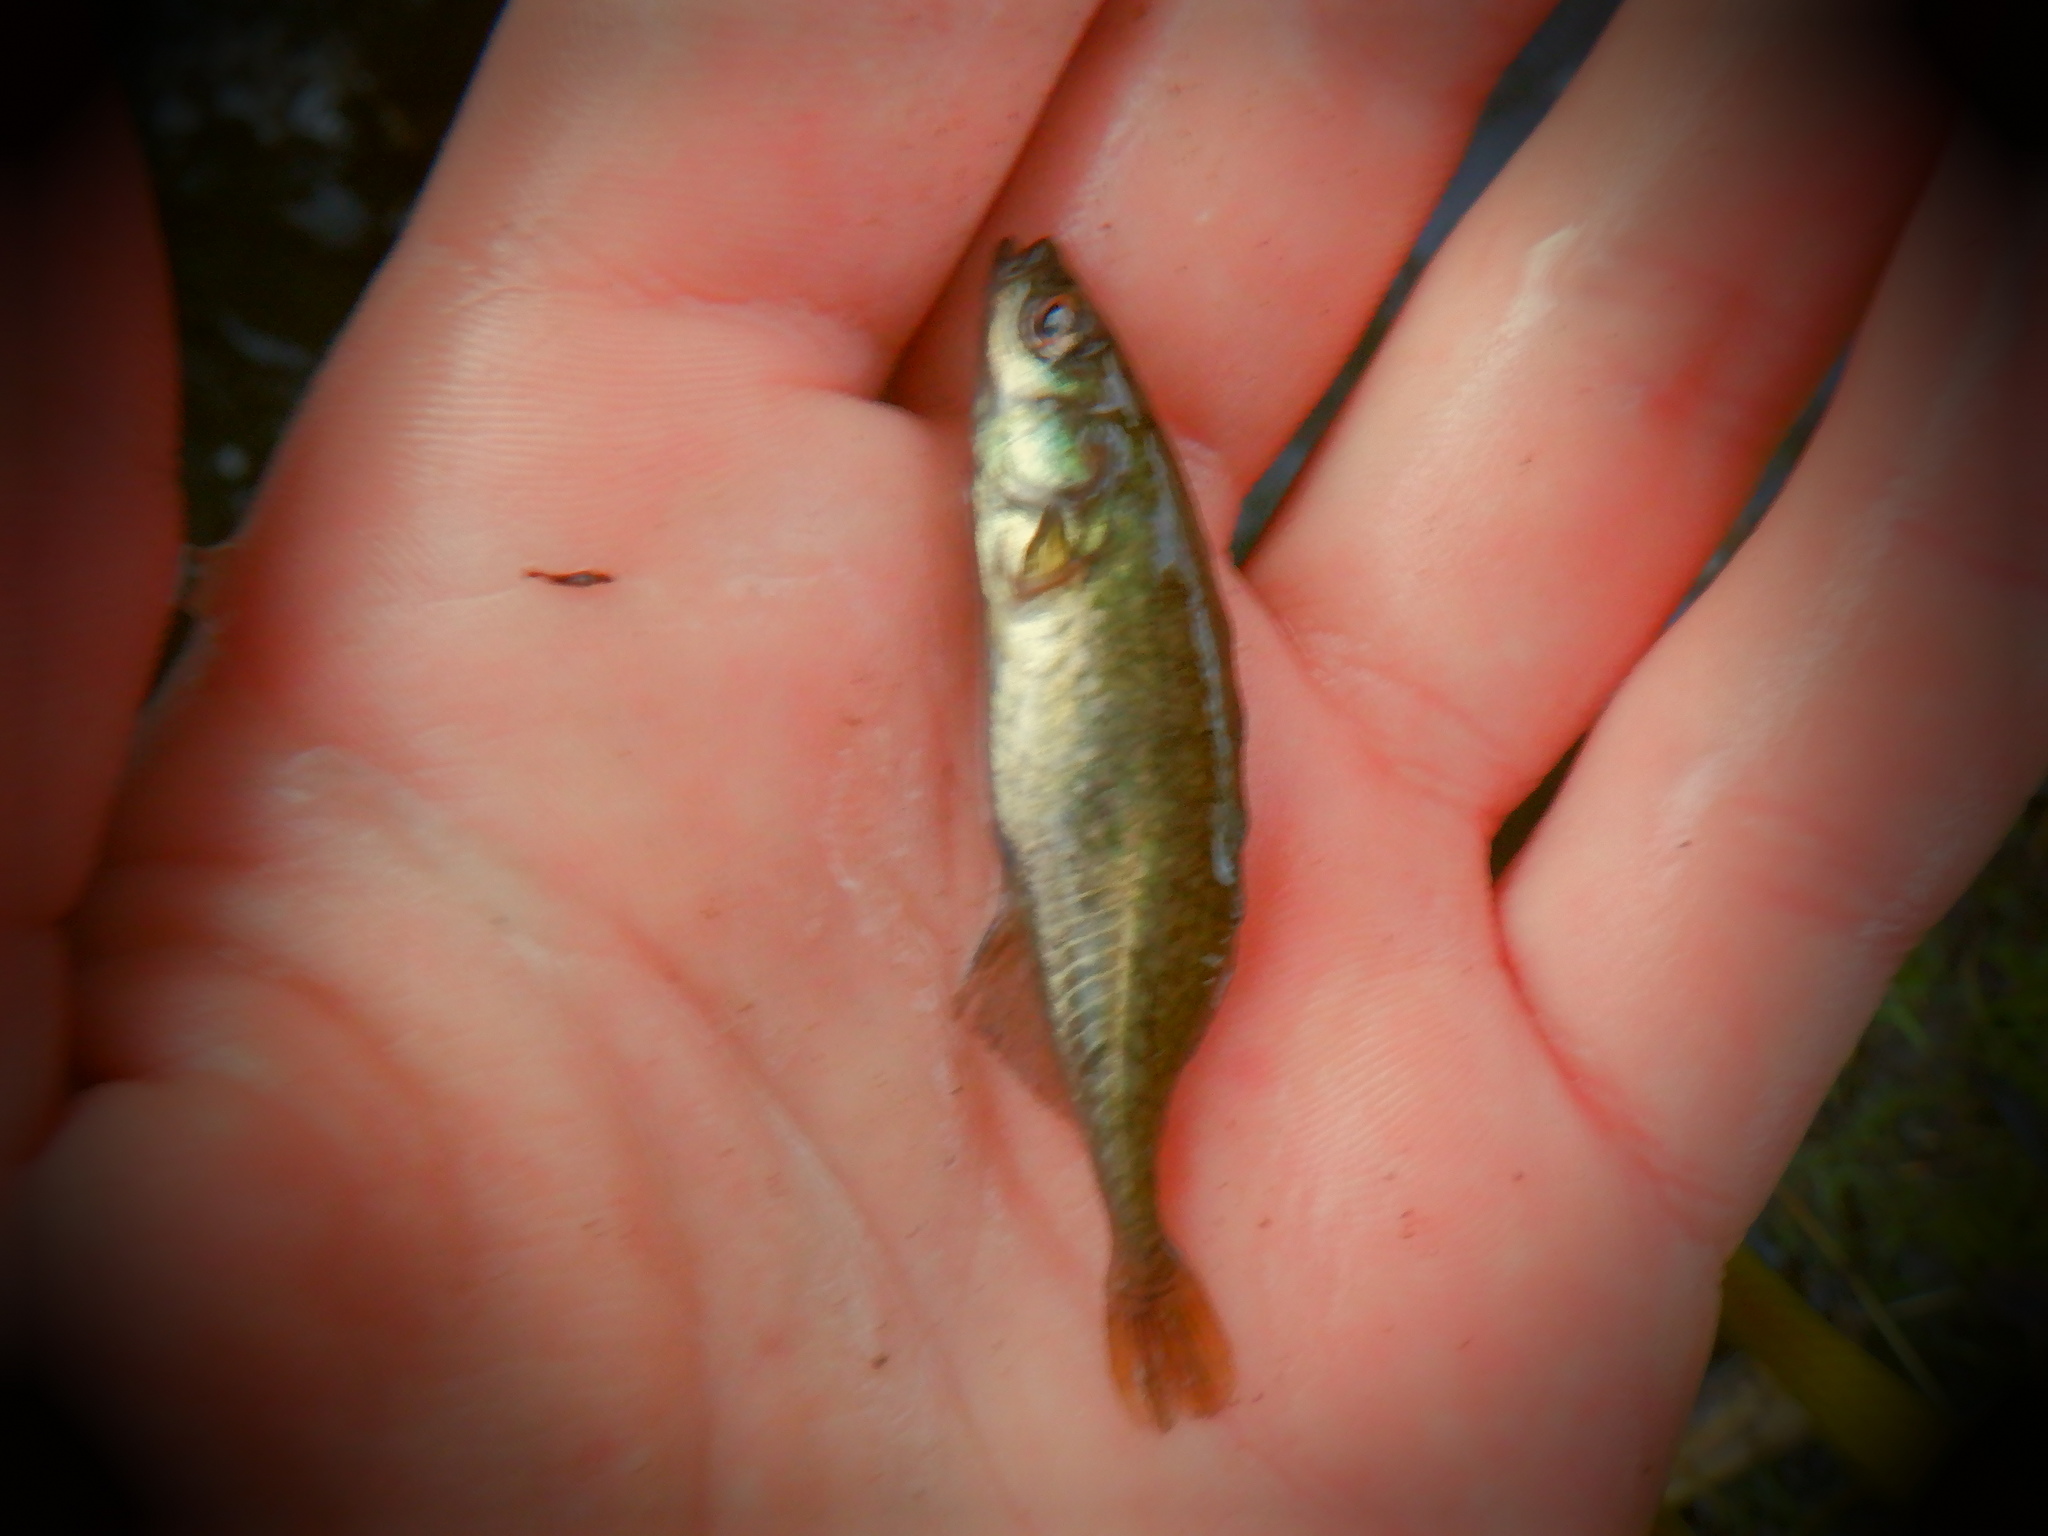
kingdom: Animalia
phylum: Chordata
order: Gasterosteiformes
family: Gasterosteidae
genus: Culaea
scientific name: Culaea inconstans
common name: Brook stickleback
